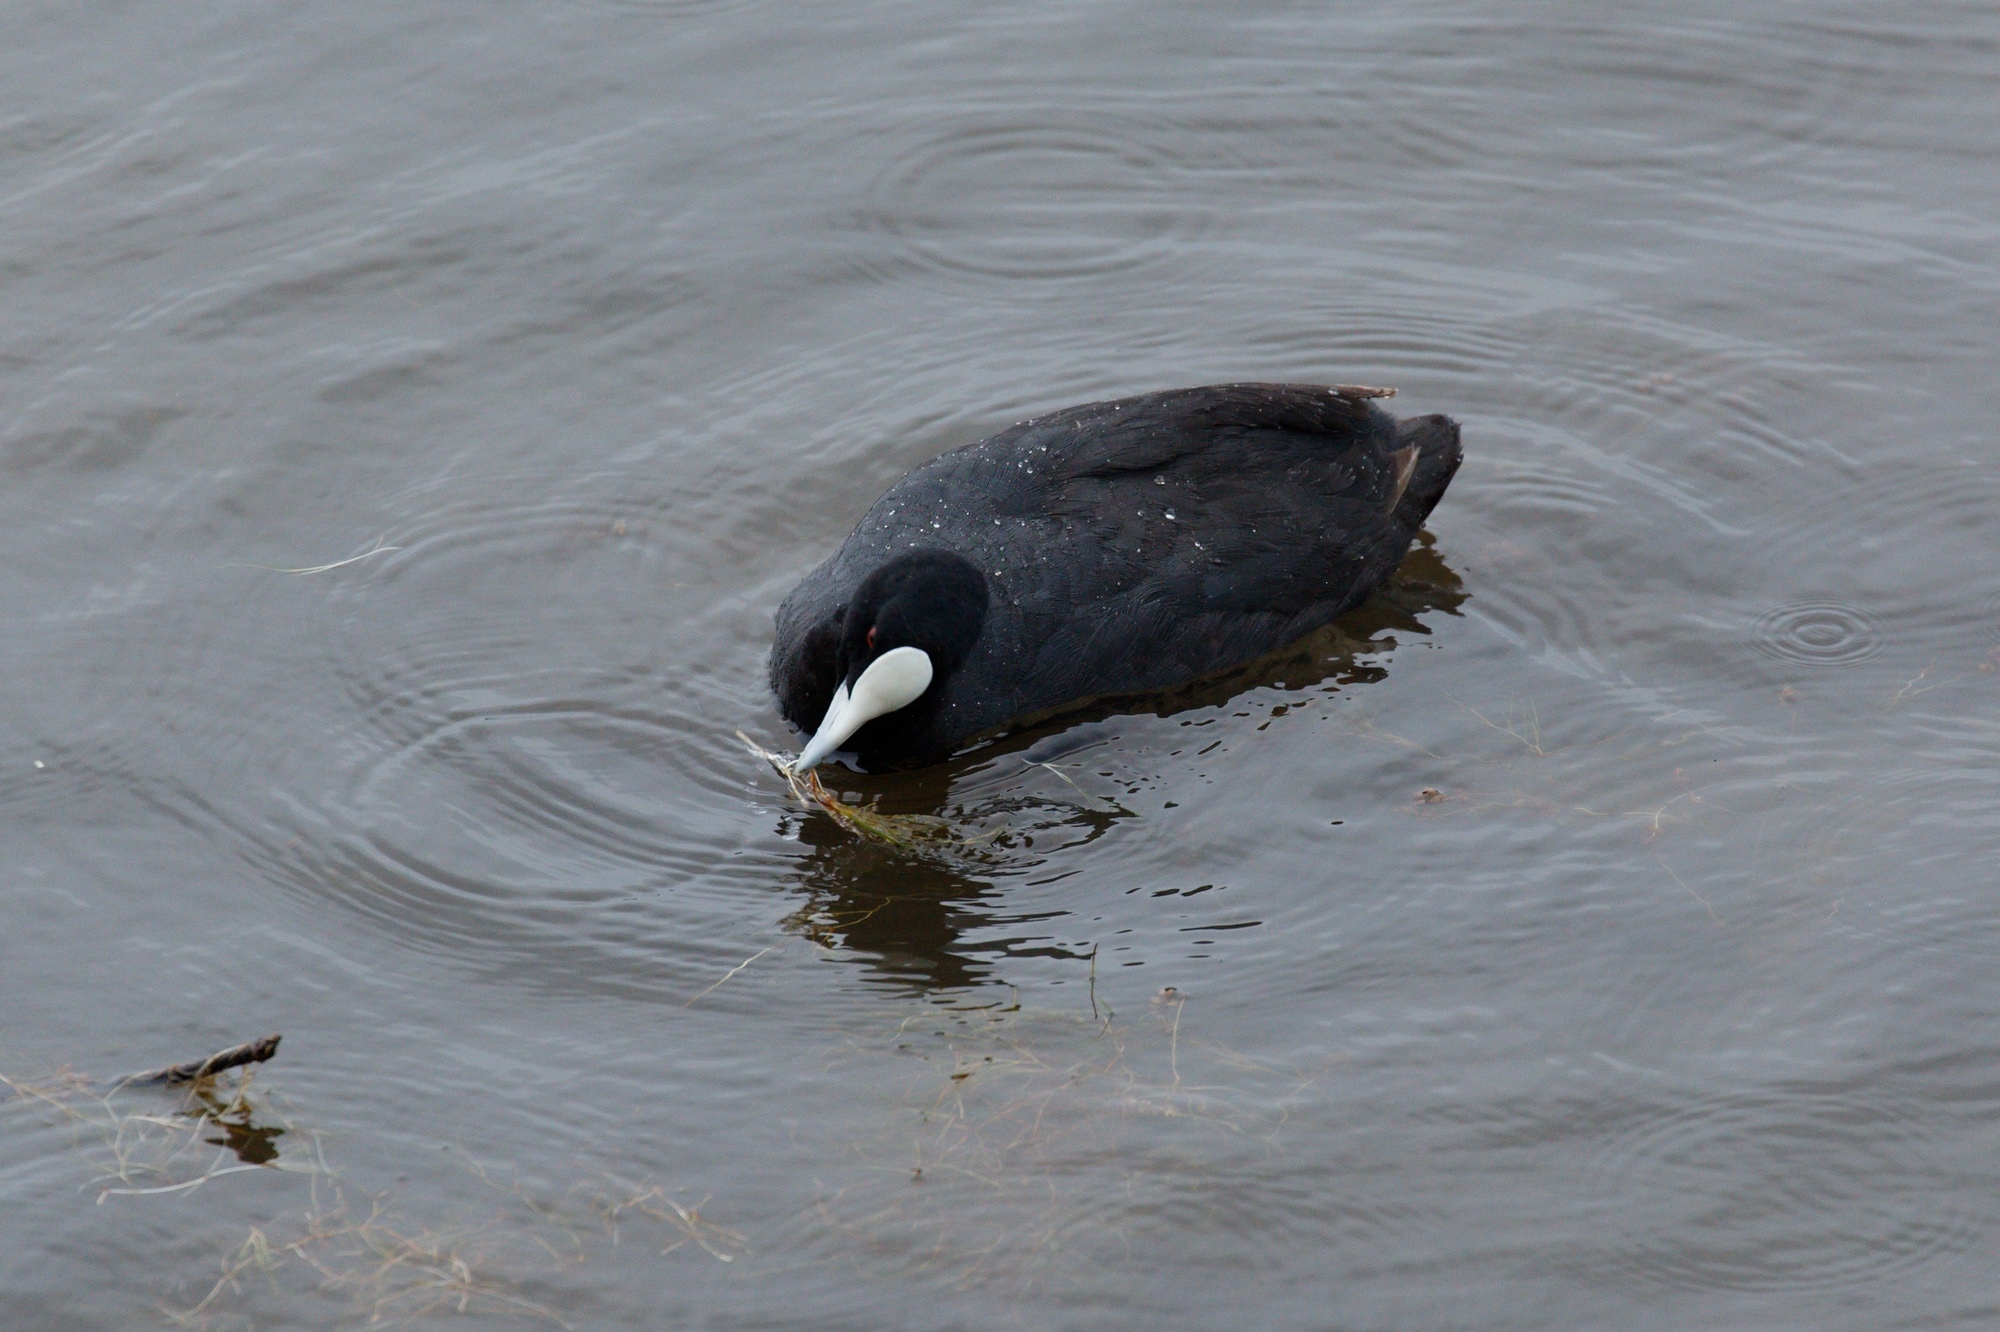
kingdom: Animalia
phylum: Chordata
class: Aves
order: Gruiformes
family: Rallidae
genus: Fulica
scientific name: Fulica atra
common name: Eurasian coot
